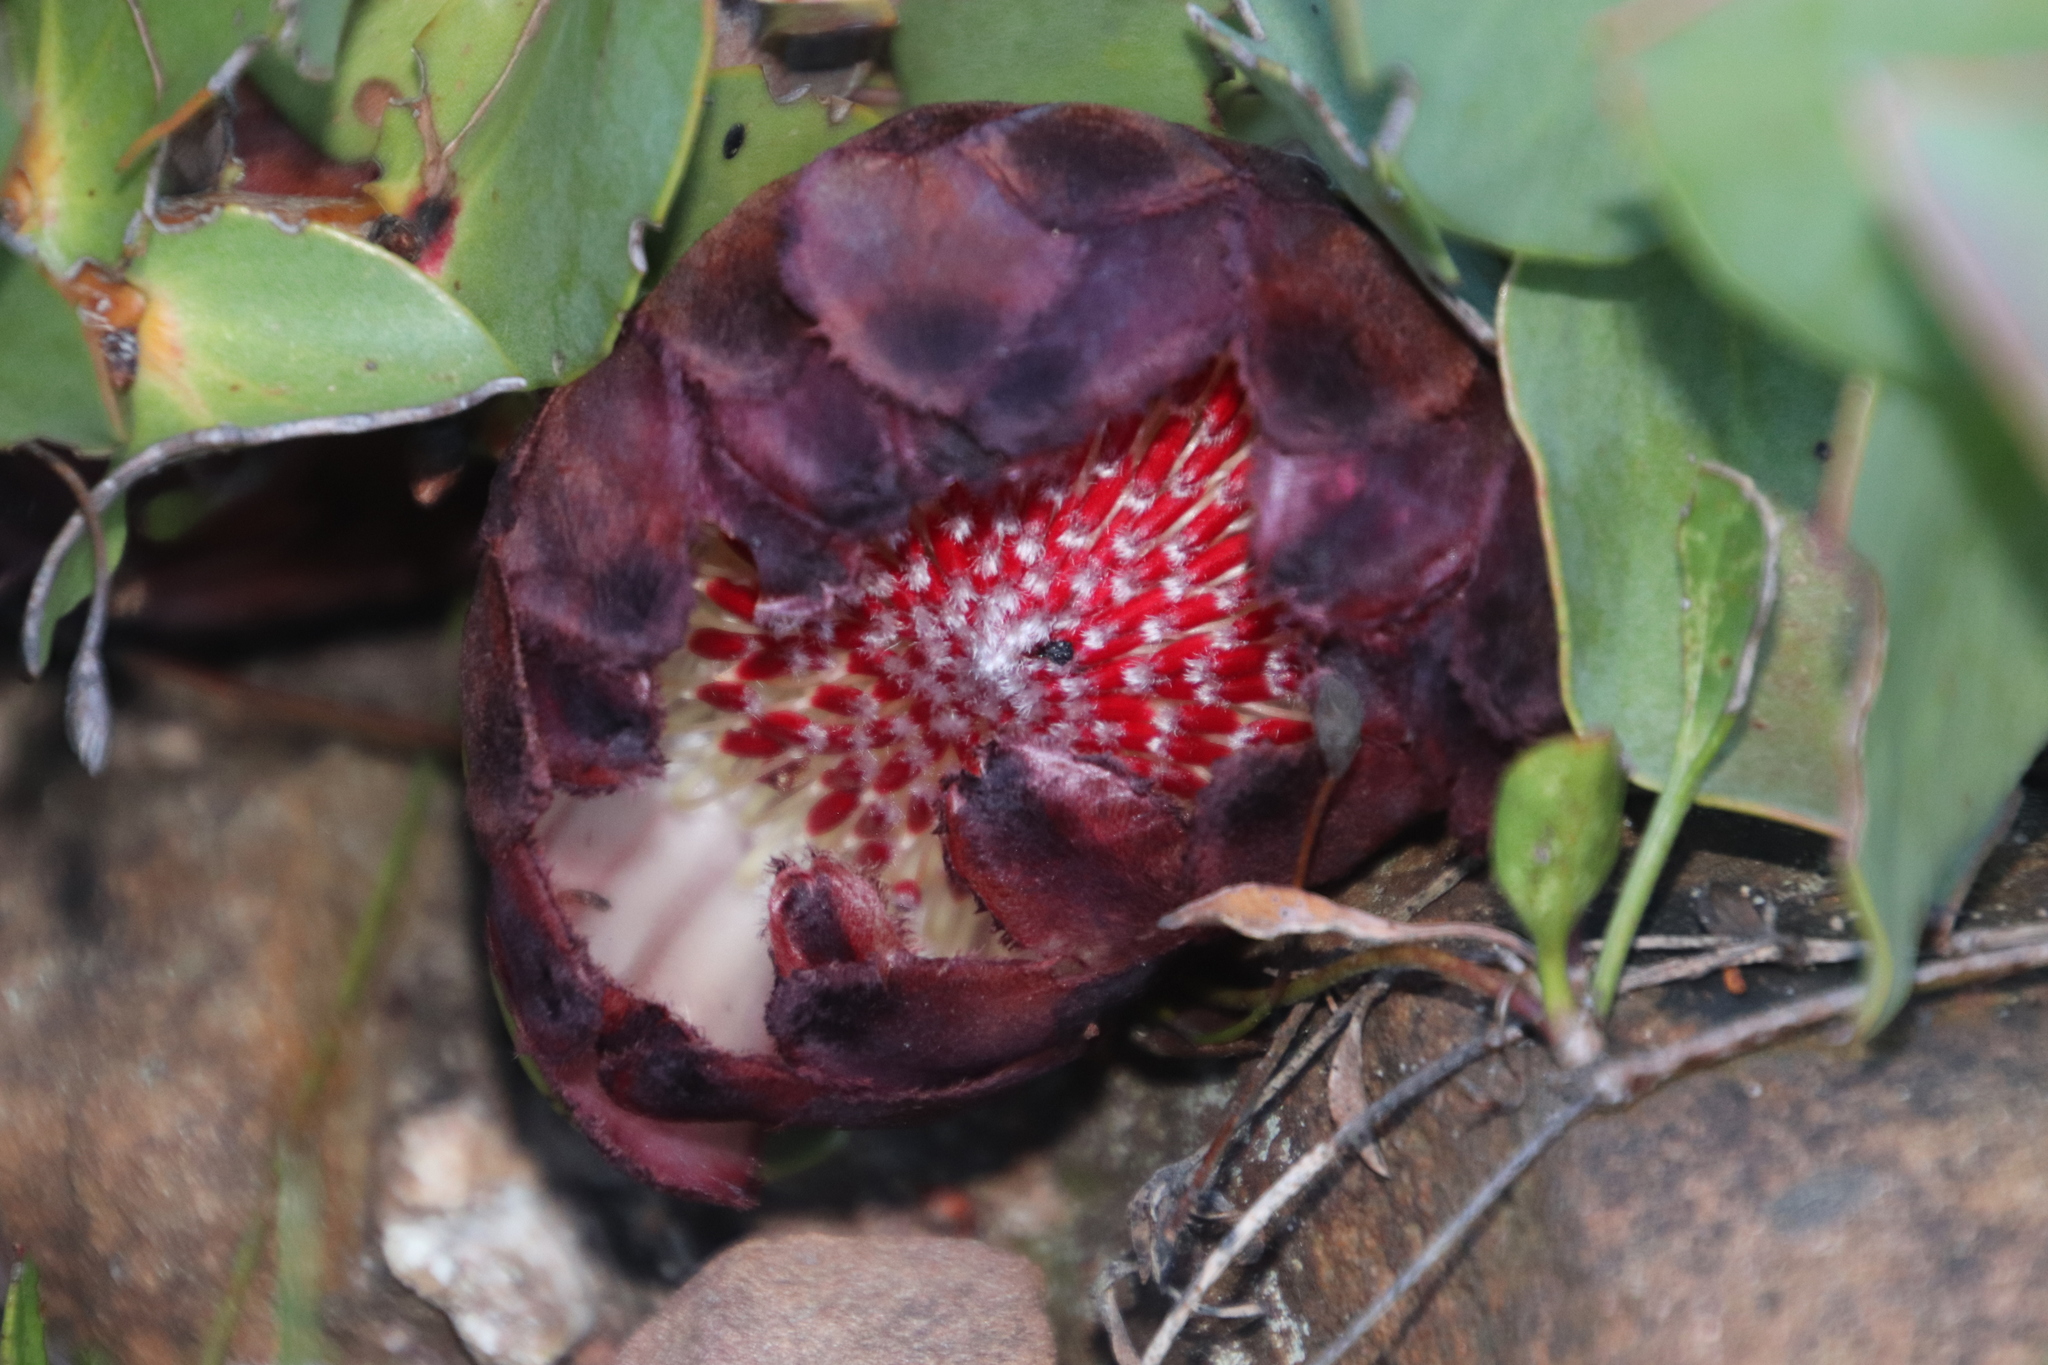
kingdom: Plantae
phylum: Tracheophyta
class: Magnoliopsida
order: Proteales
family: Proteaceae
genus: Protea
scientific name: Protea amplexicaulis
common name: Clasping-leaf sugarbush
